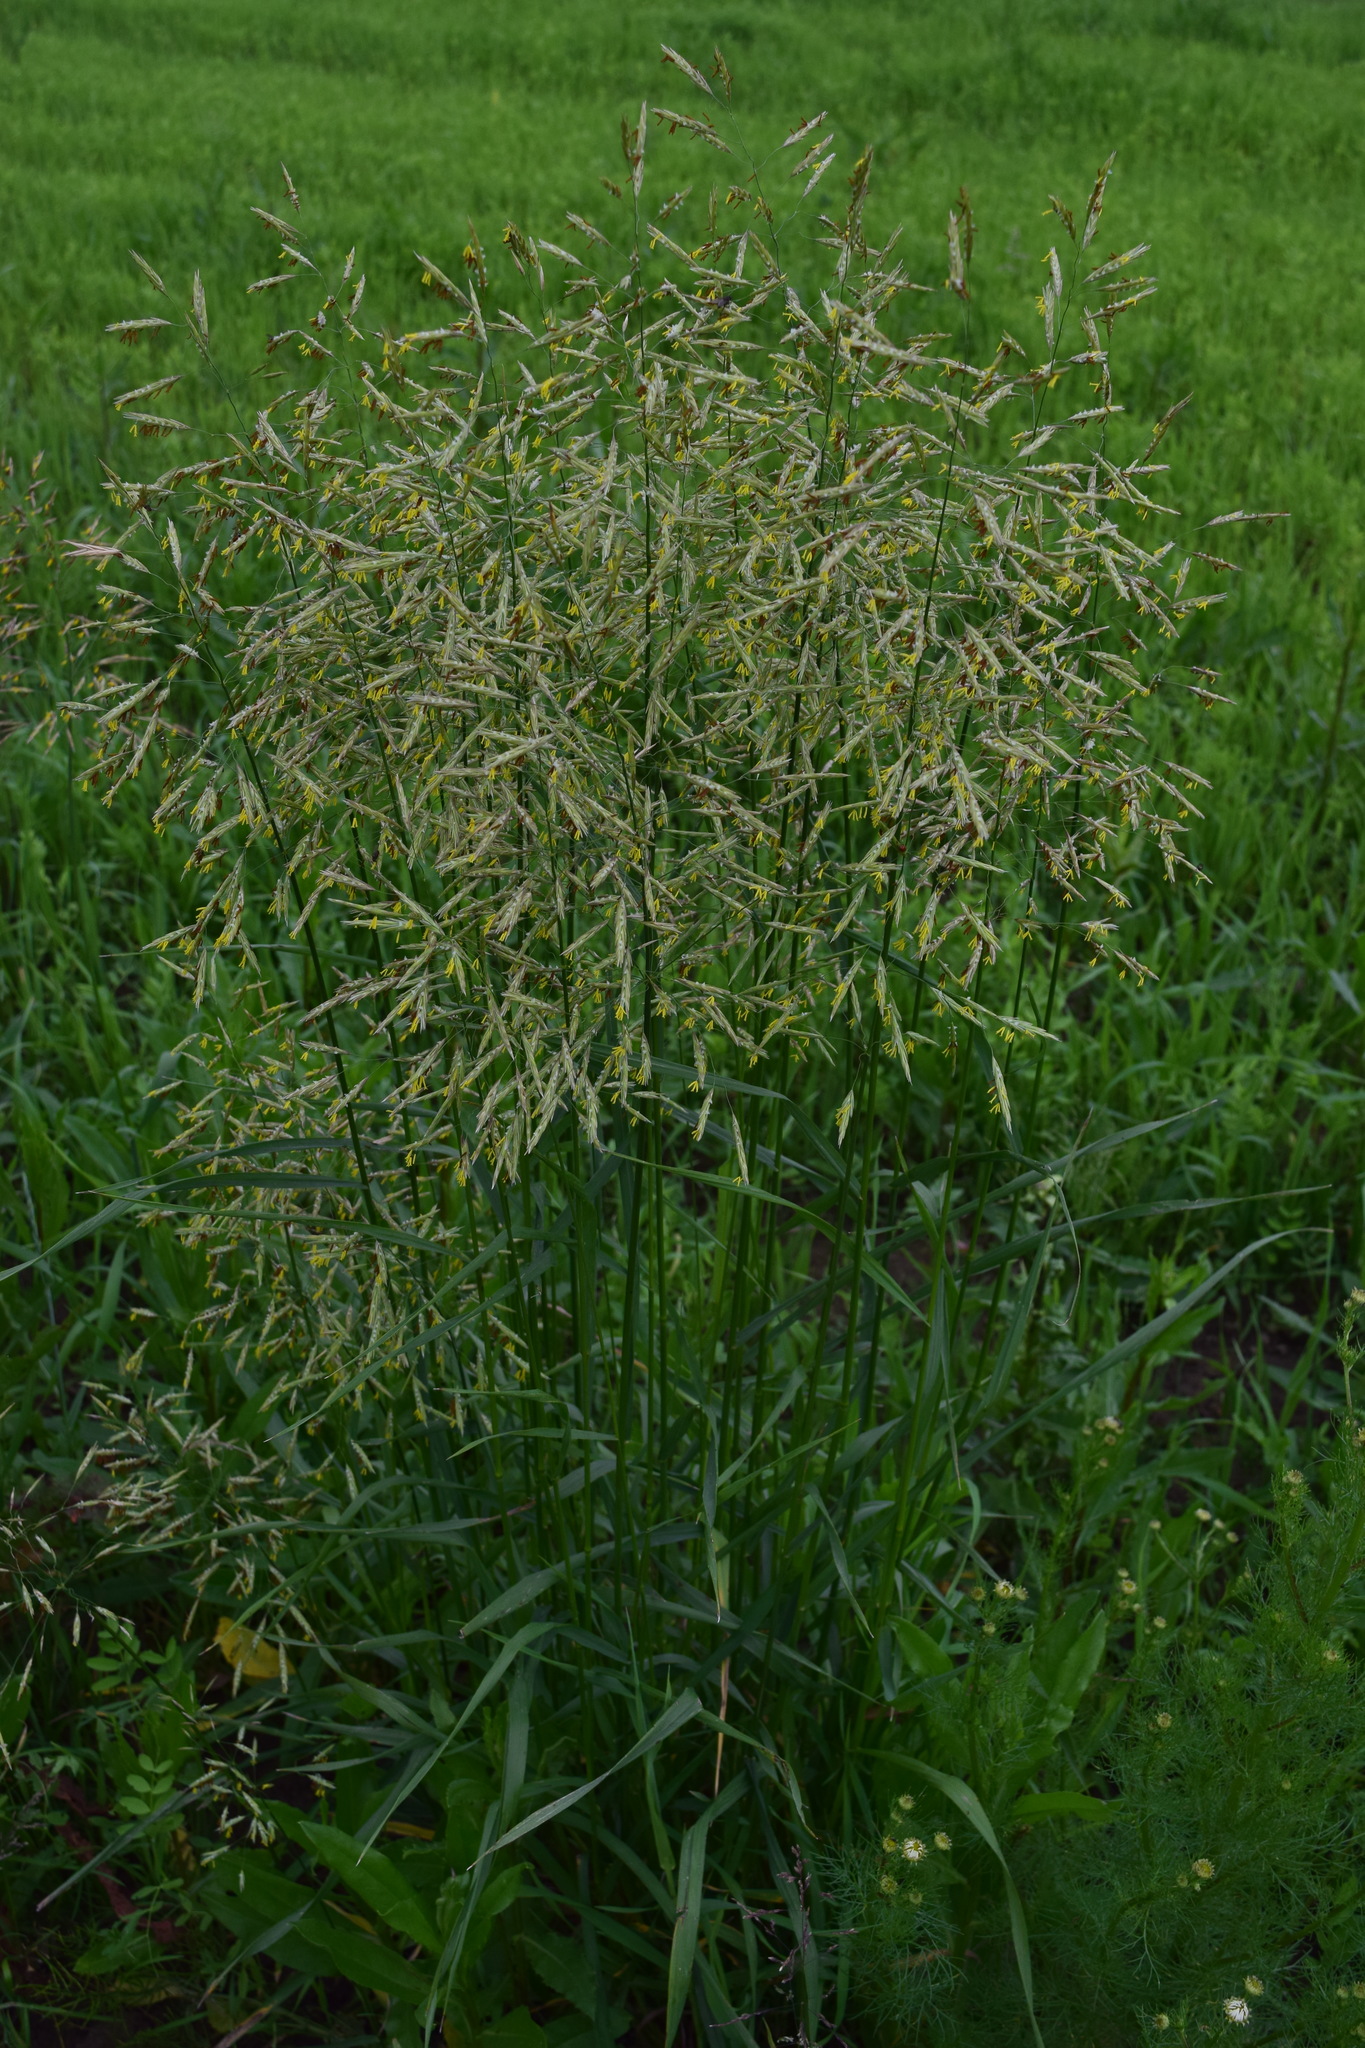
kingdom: Plantae
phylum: Tracheophyta
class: Liliopsida
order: Poales
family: Poaceae
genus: Bromus
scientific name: Bromus inermis
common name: Smooth brome
